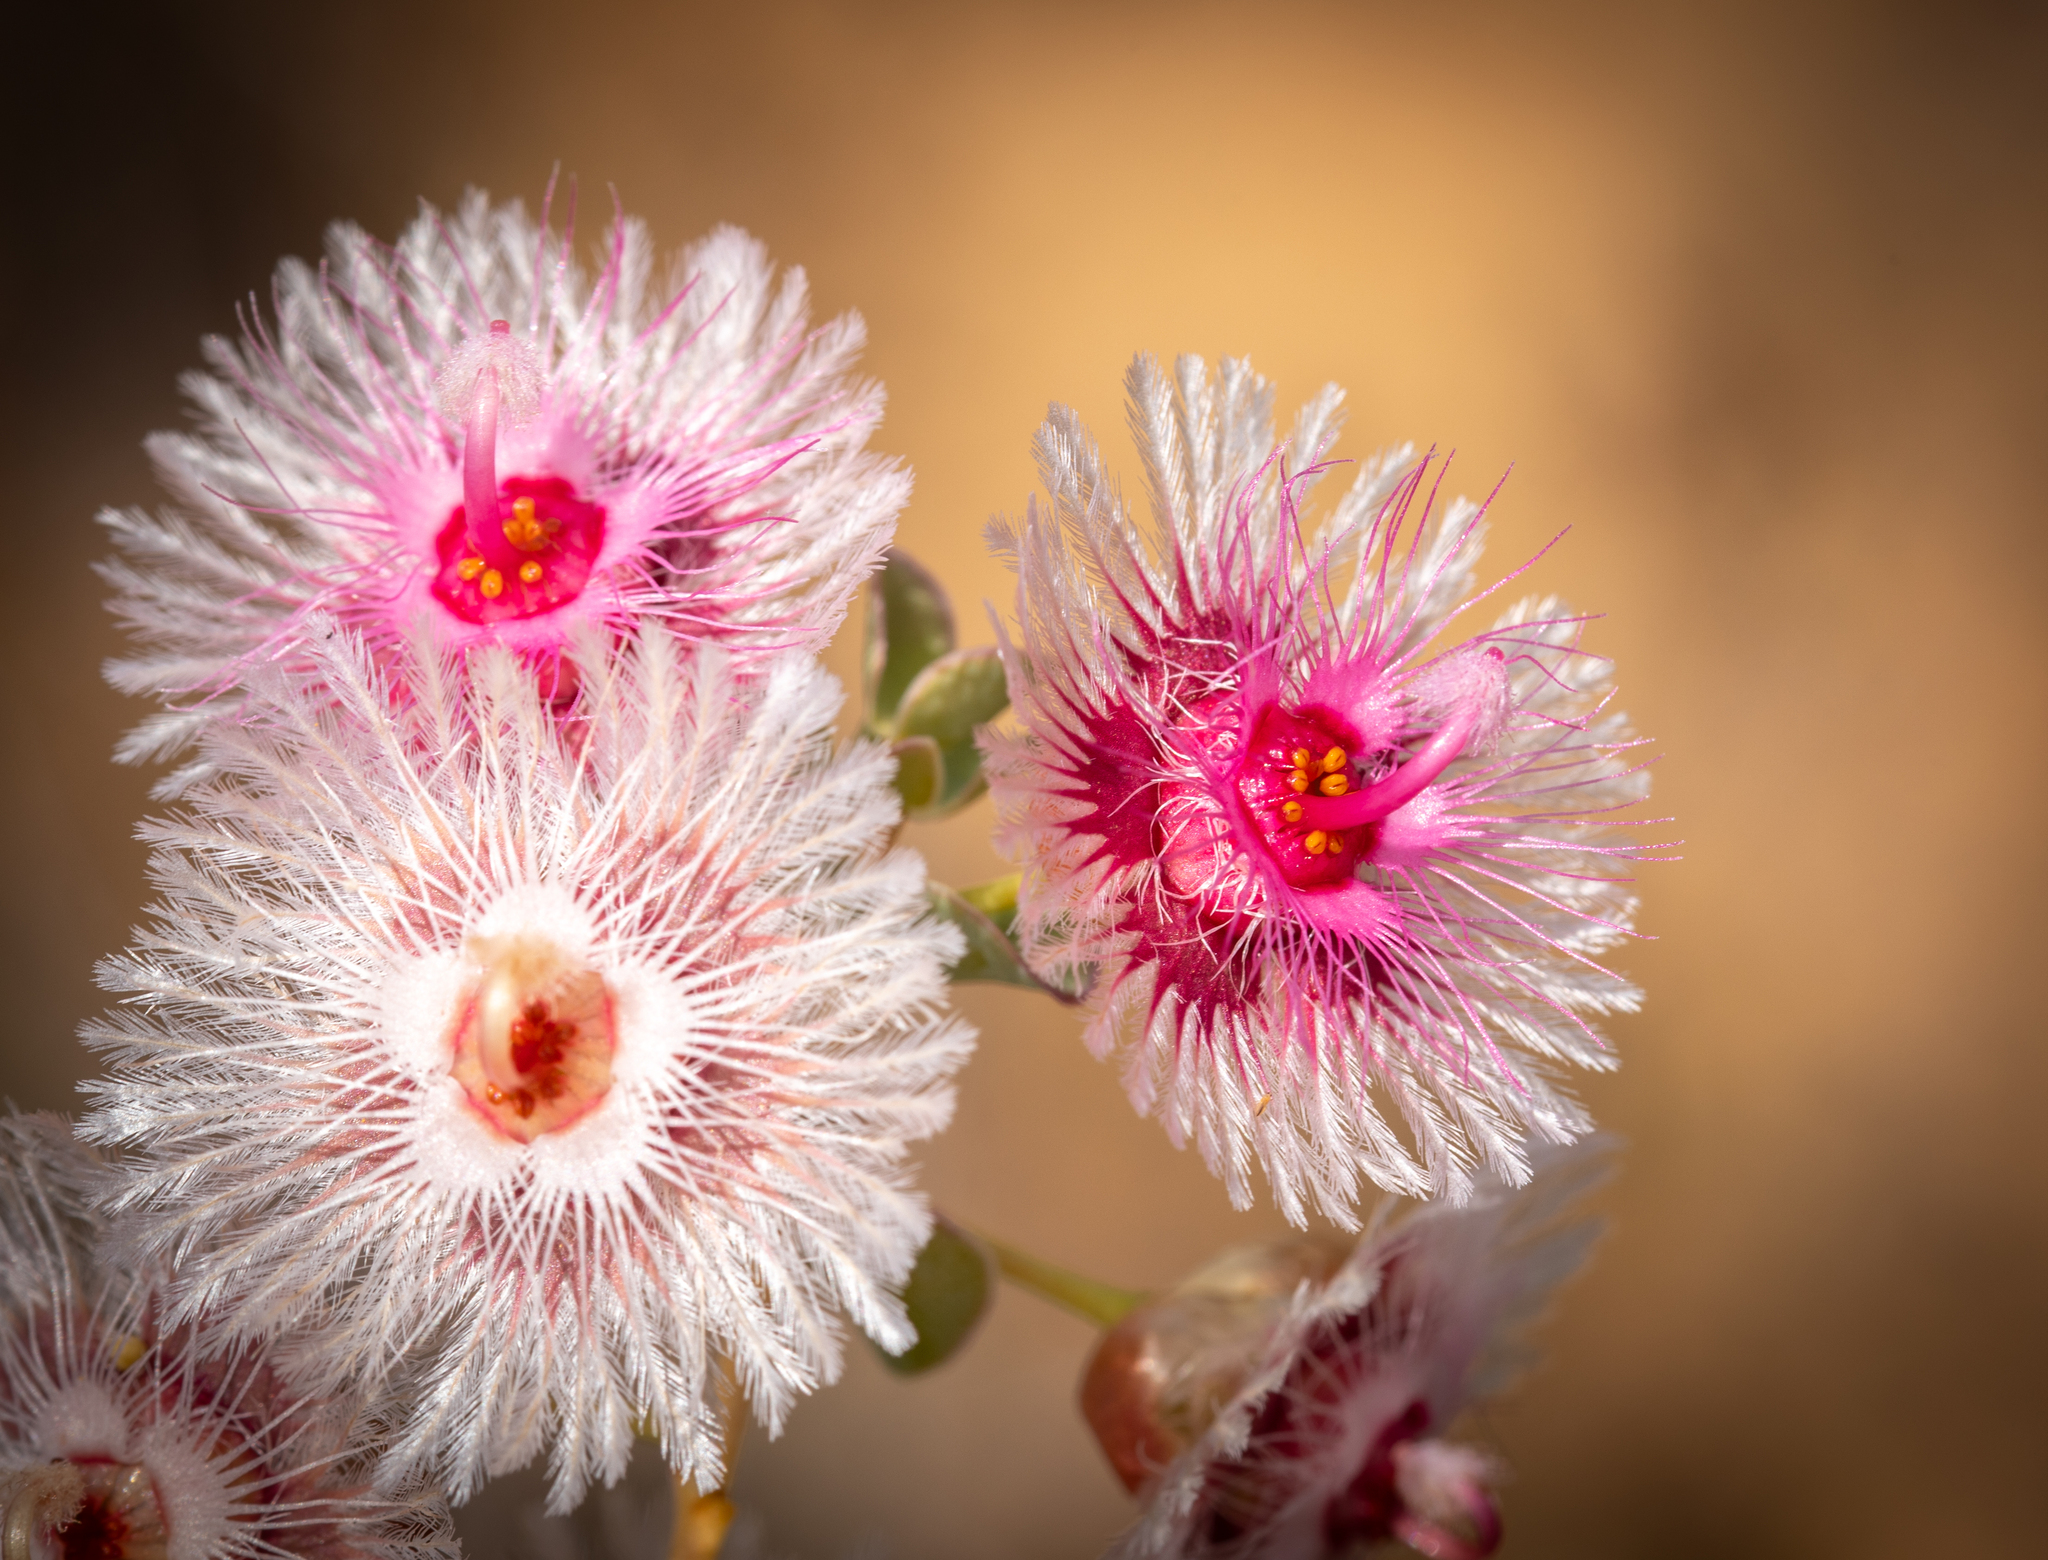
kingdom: Plantae
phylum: Tracheophyta
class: Magnoliopsida
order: Myrtales
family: Myrtaceae
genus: Verticordia
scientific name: Verticordia oculata
